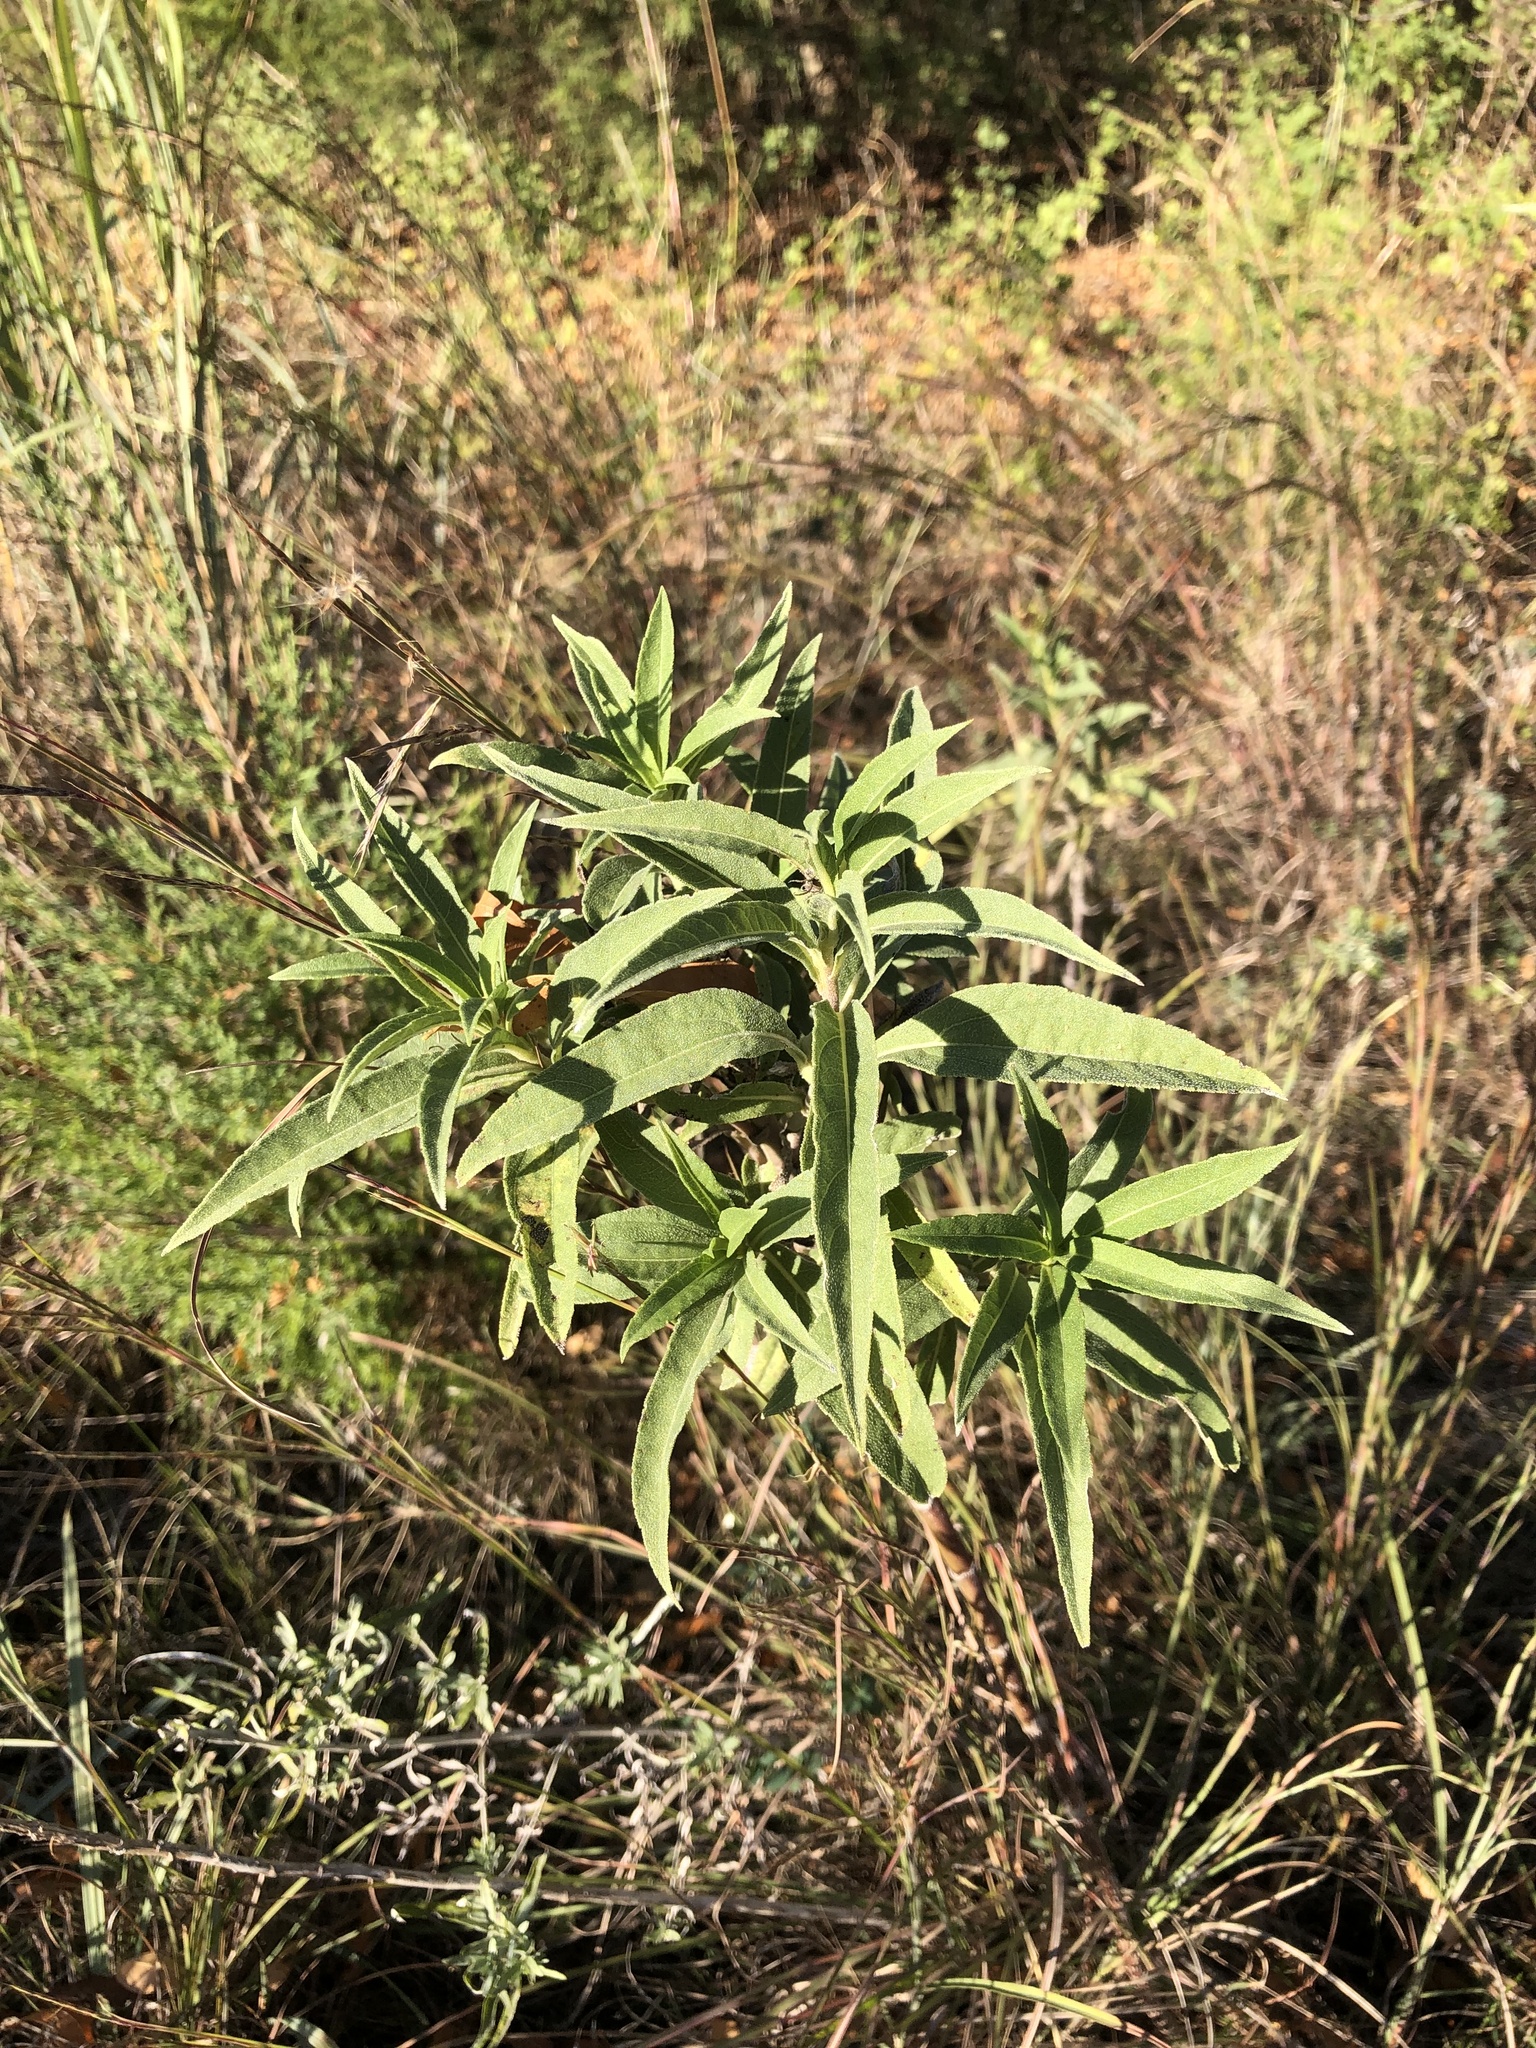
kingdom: Plantae
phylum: Tracheophyta
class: Magnoliopsida
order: Asterales
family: Asteraceae
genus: Helianthus
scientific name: Helianthus maximiliani
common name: Maximilian's sunflower
